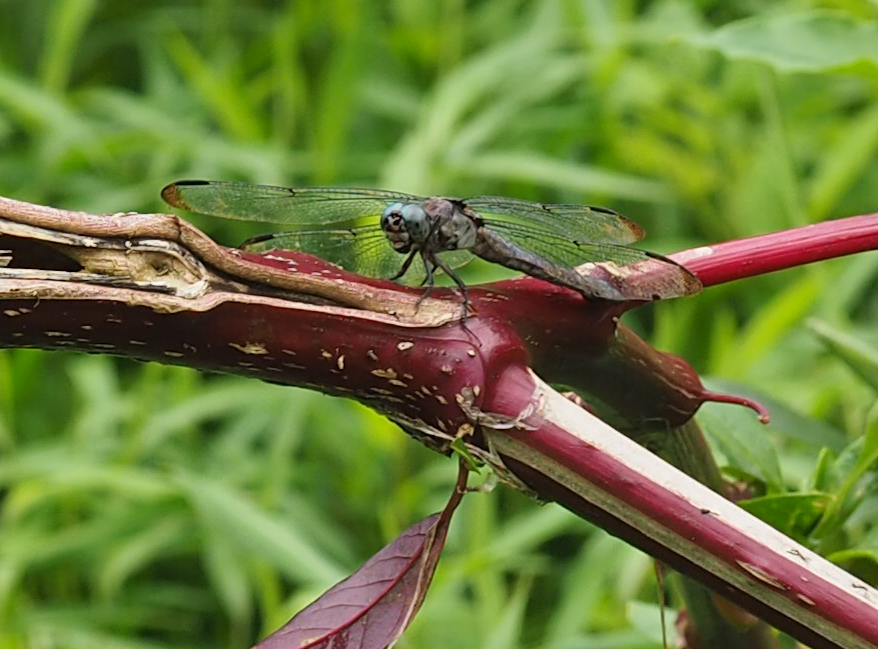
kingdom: Animalia
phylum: Arthropoda
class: Insecta
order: Odonata
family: Libellulidae
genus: Libellula
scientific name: Libellula vibrans
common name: Great blue skimmer
